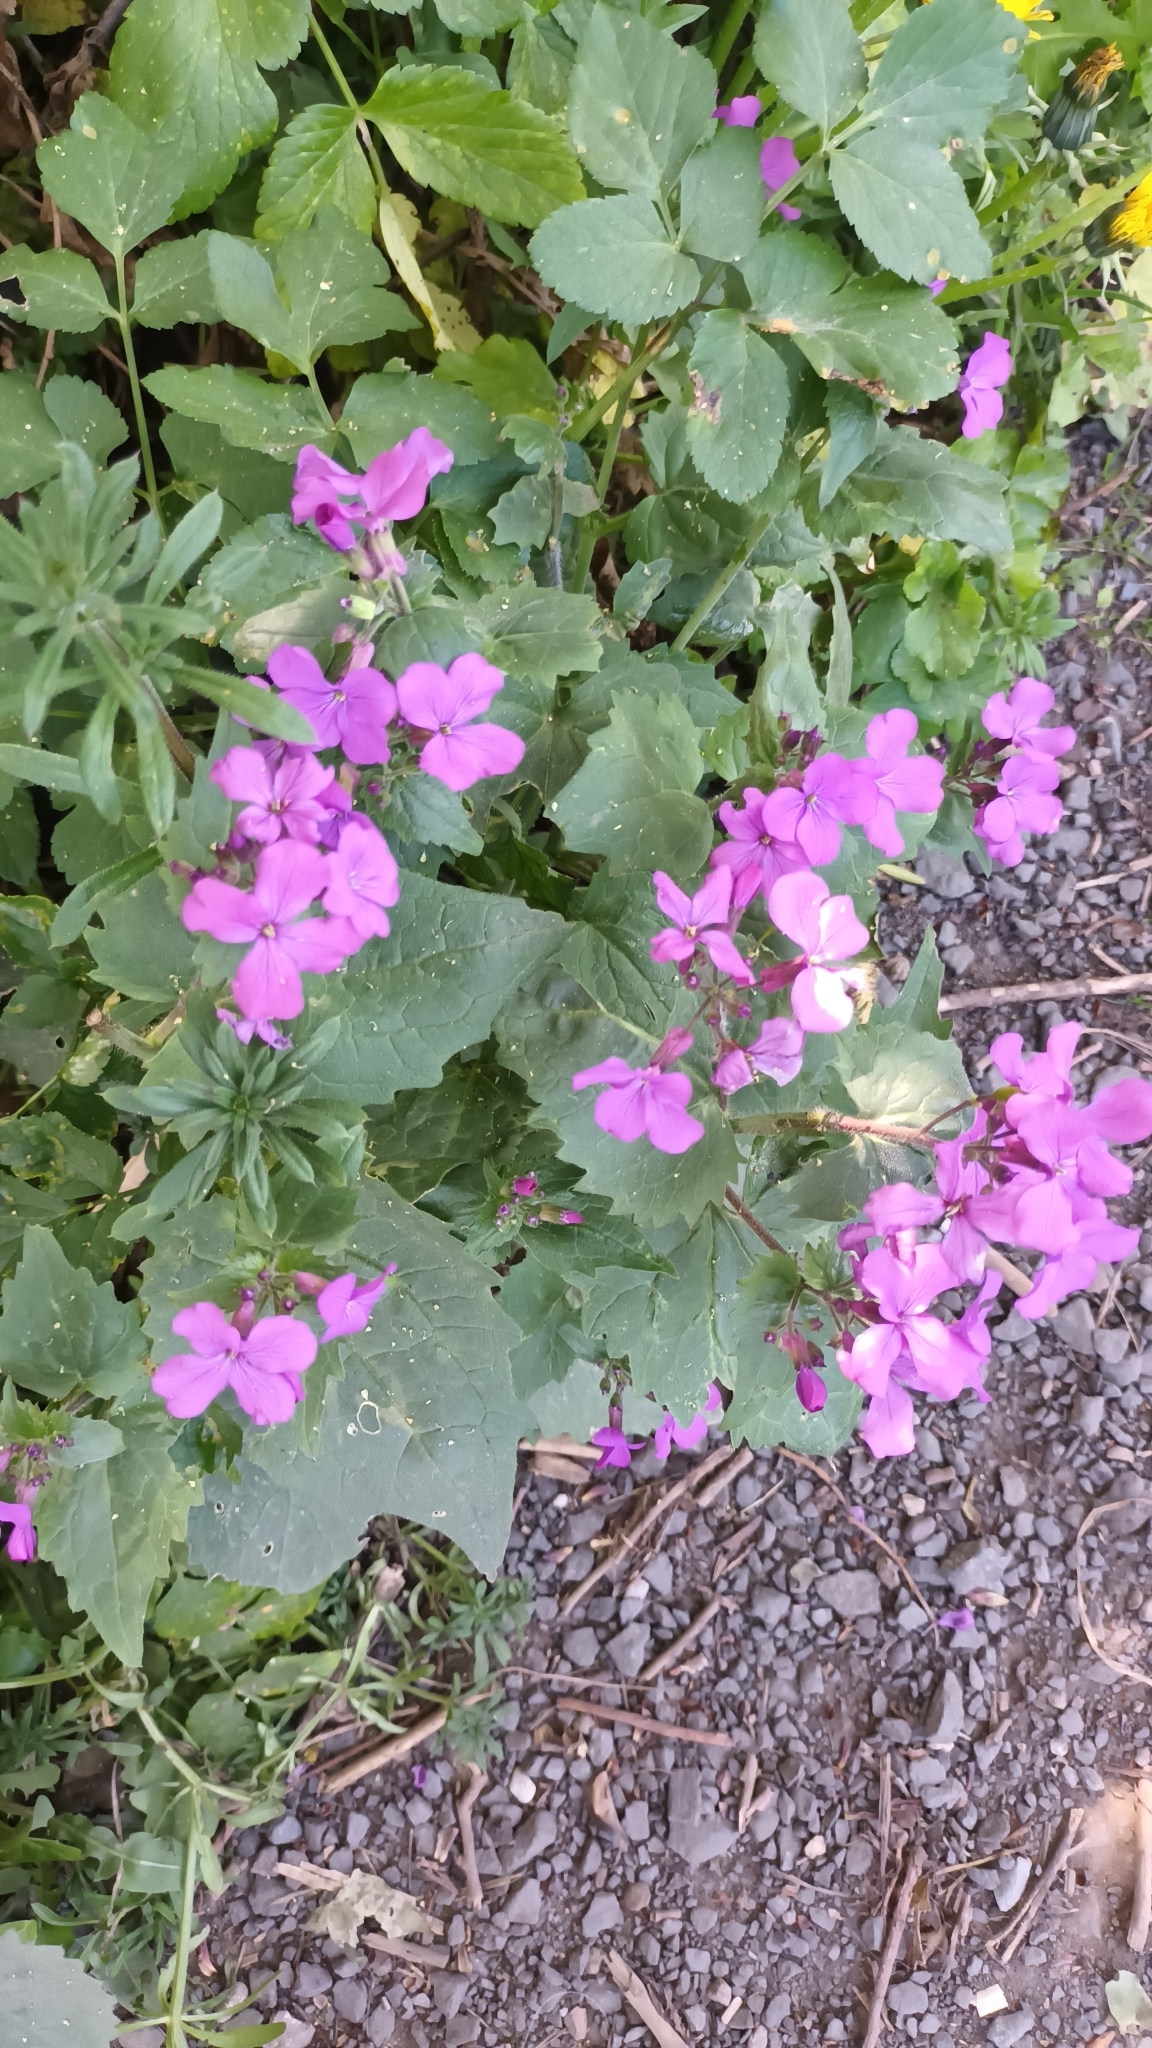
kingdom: Plantae
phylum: Tracheophyta
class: Magnoliopsida
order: Brassicales
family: Brassicaceae
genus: Lunaria
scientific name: Lunaria annua
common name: Honesty
